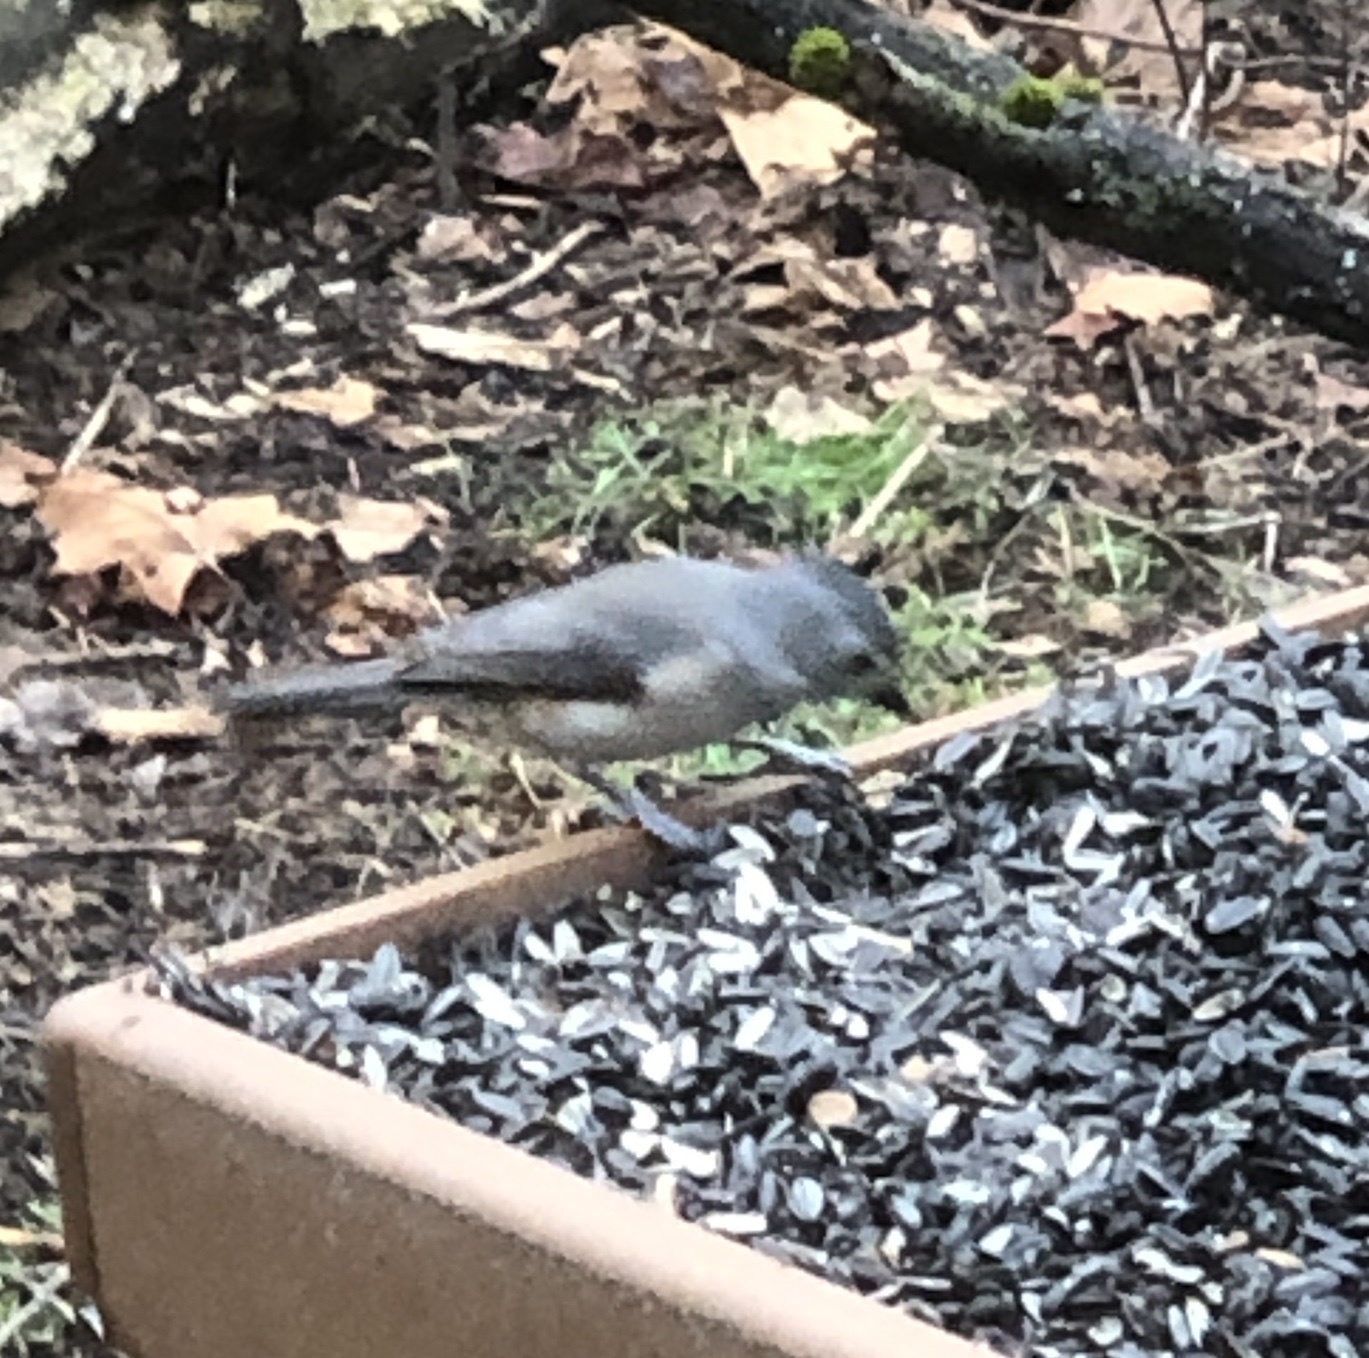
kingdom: Animalia
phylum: Chordata
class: Aves
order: Passeriformes
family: Paridae
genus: Baeolophus
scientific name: Baeolophus bicolor
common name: Tufted titmouse
